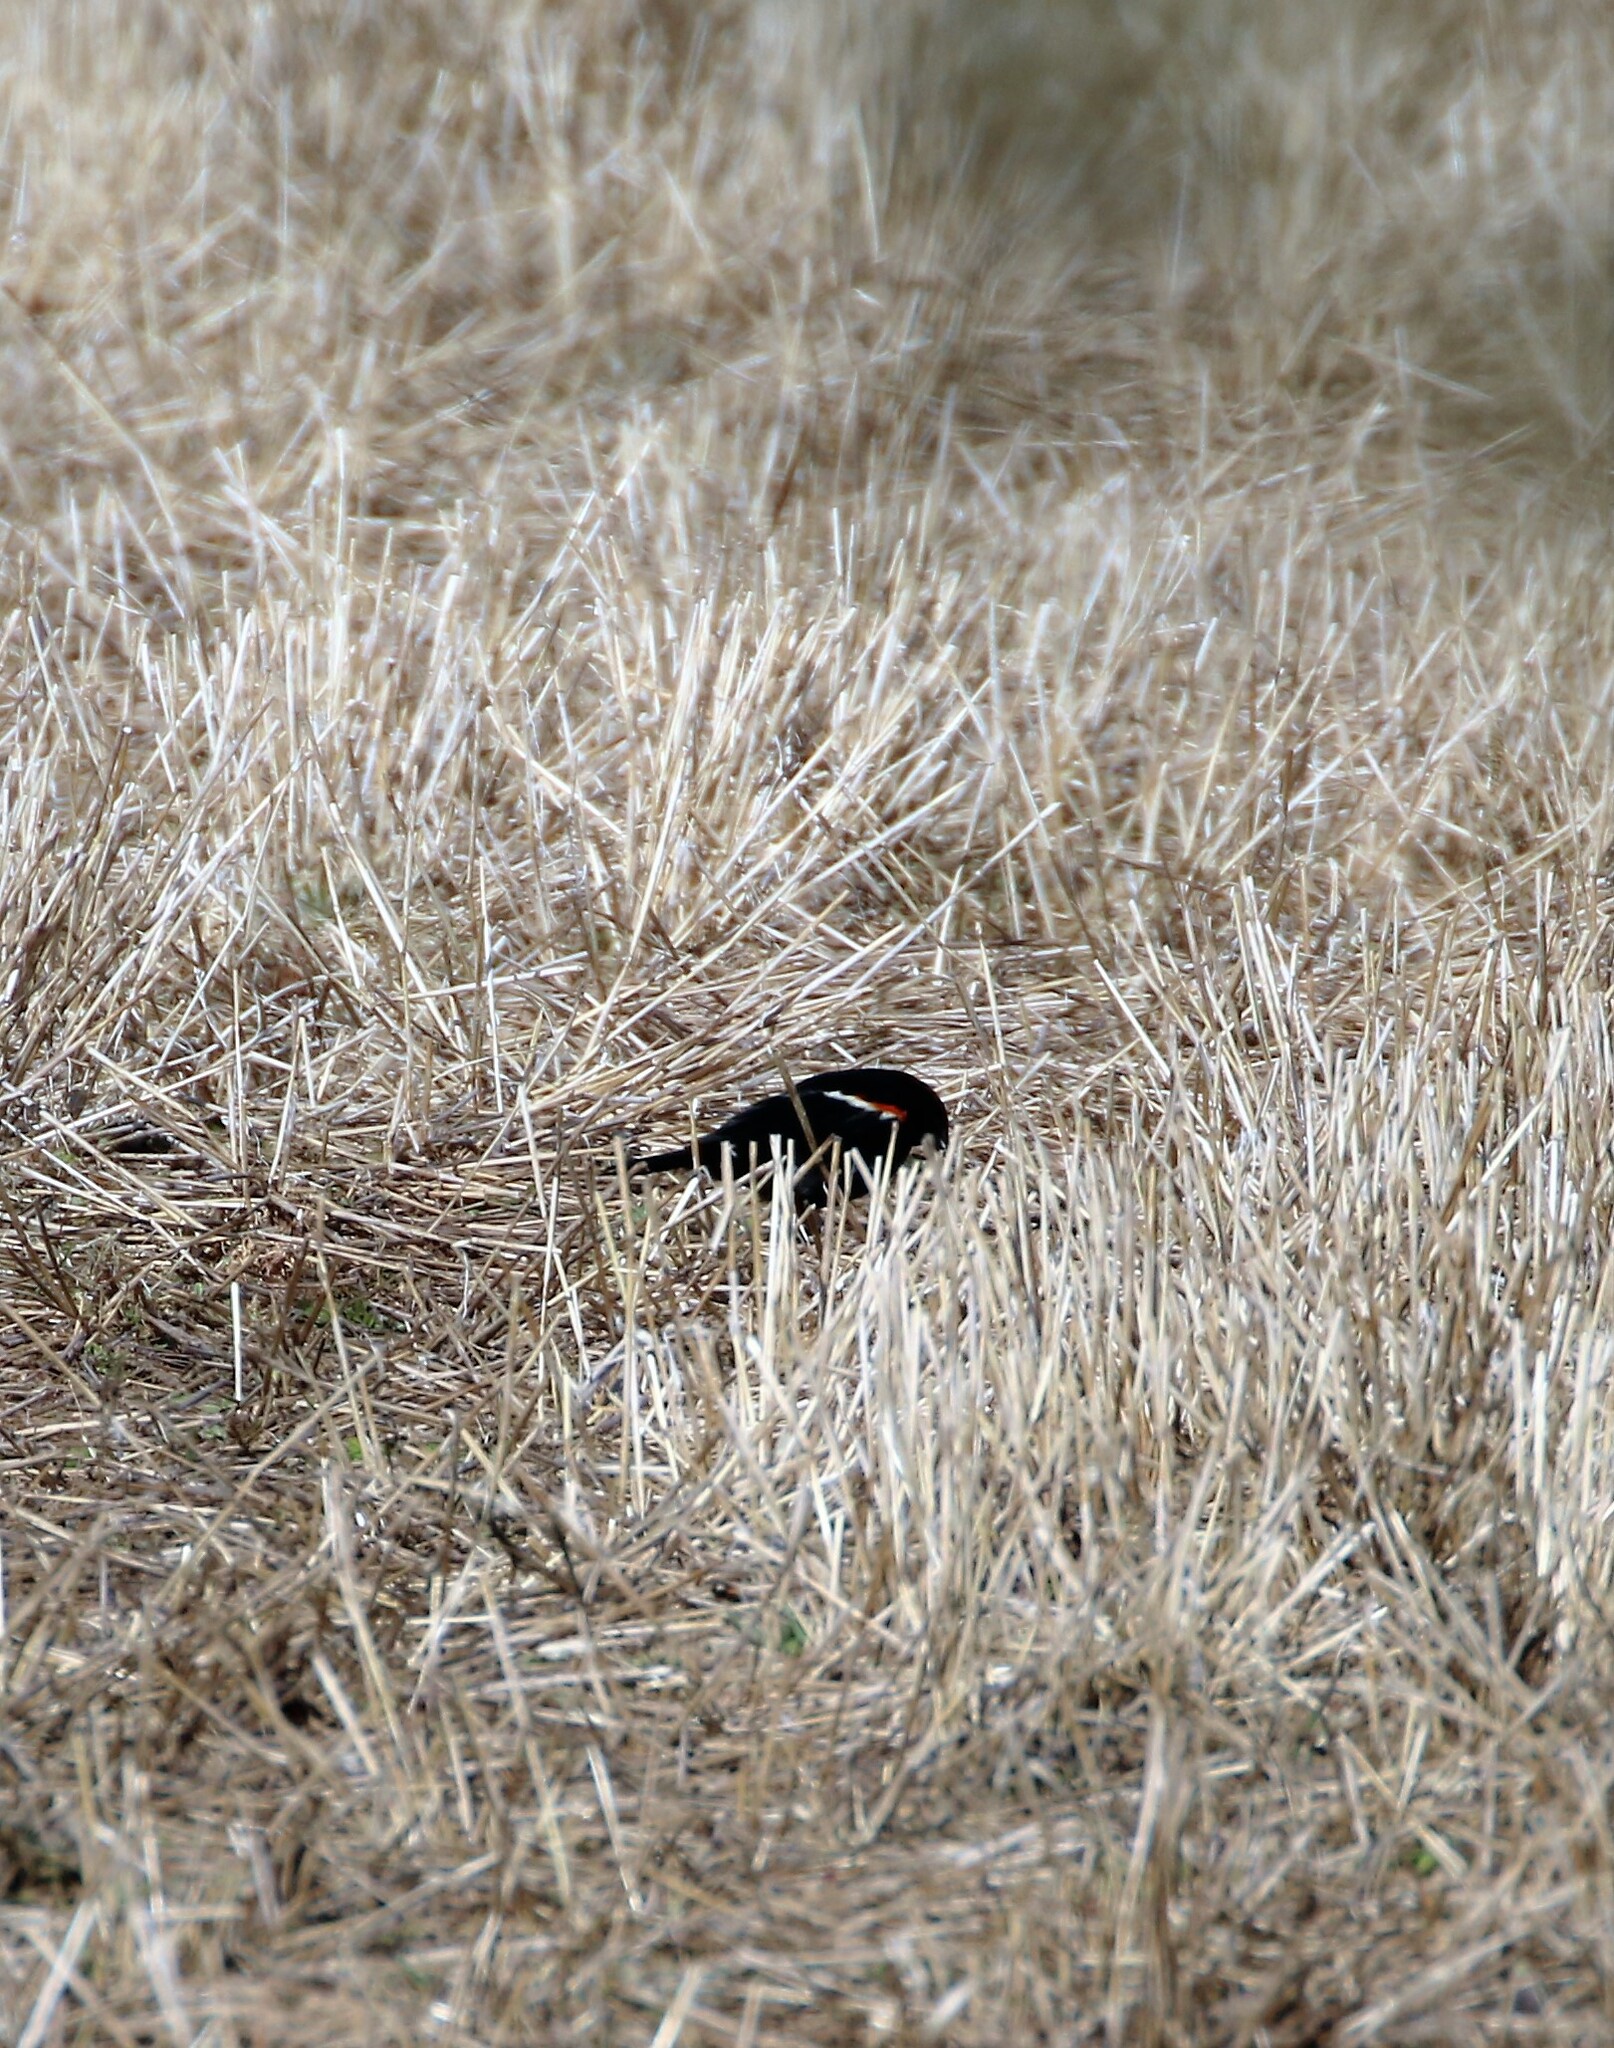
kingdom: Animalia
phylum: Chordata
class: Aves
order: Passeriformes
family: Icteridae
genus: Agelaius
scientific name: Agelaius phoeniceus
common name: Red-winged blackbird
